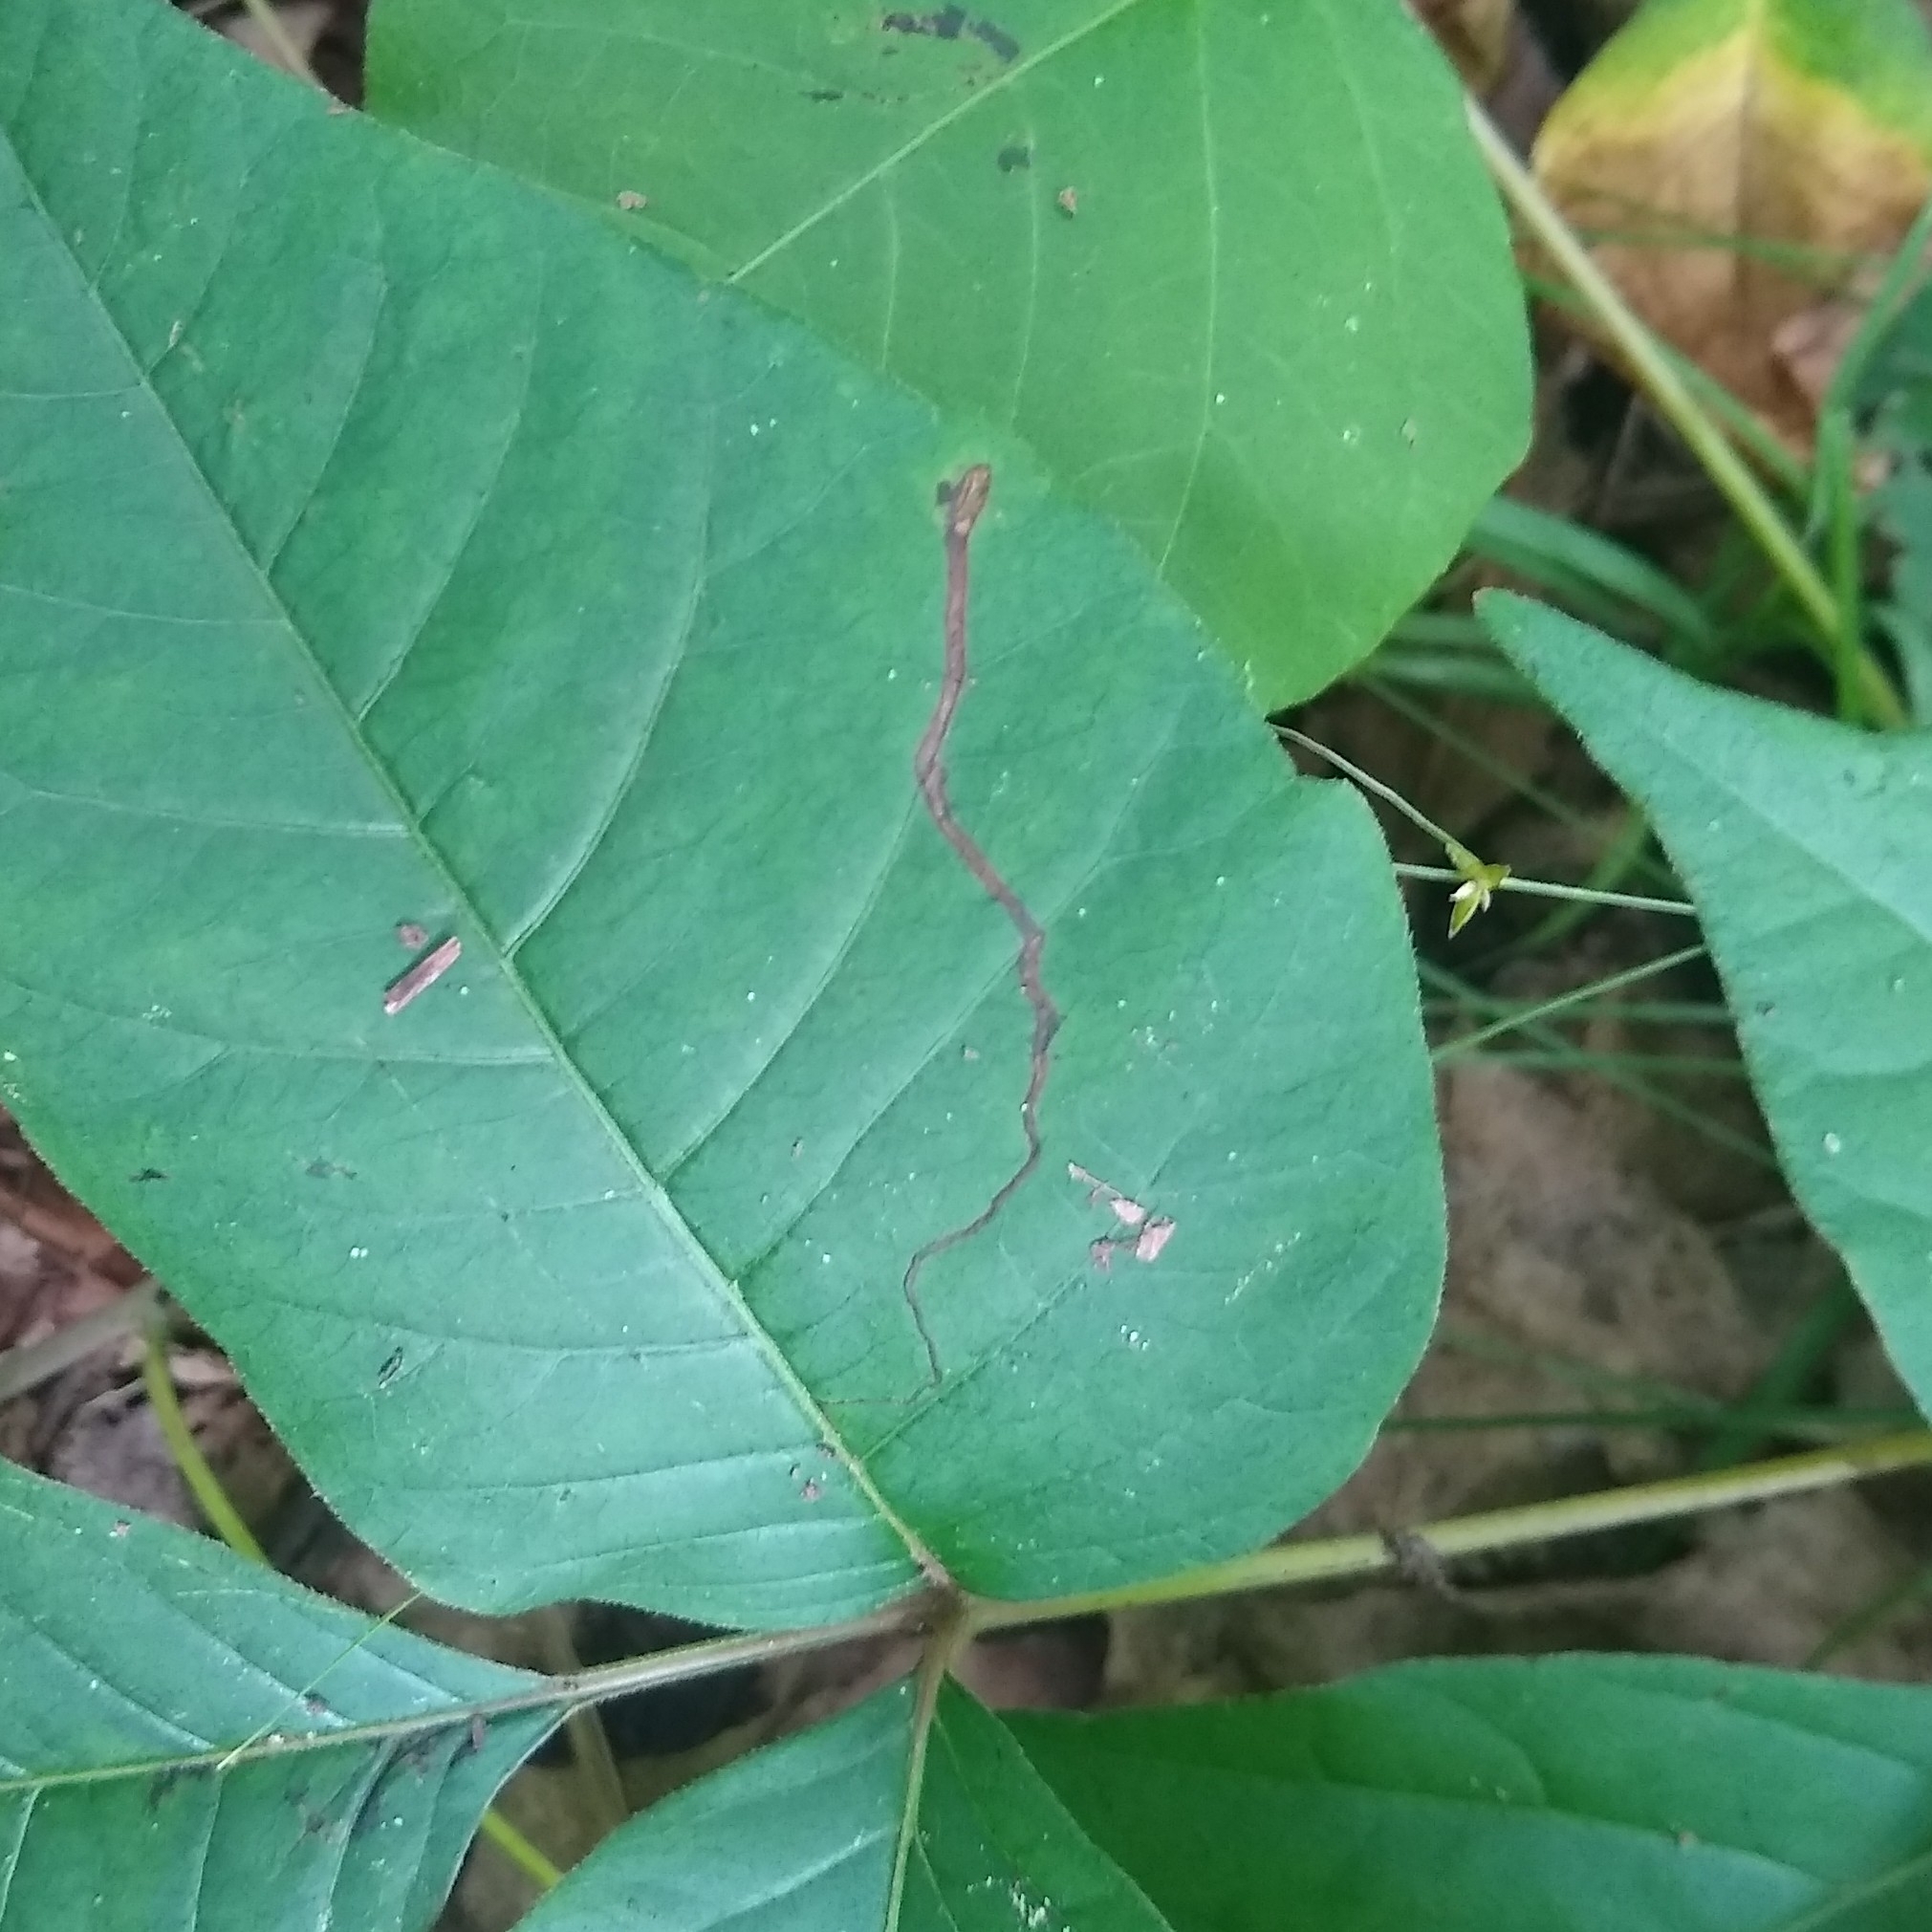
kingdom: Animalia
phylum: Arthropoda
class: Insecta
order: Lepidoptera
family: Nepticulidae
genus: Stigmella
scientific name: Stigmella rhoifoliella
